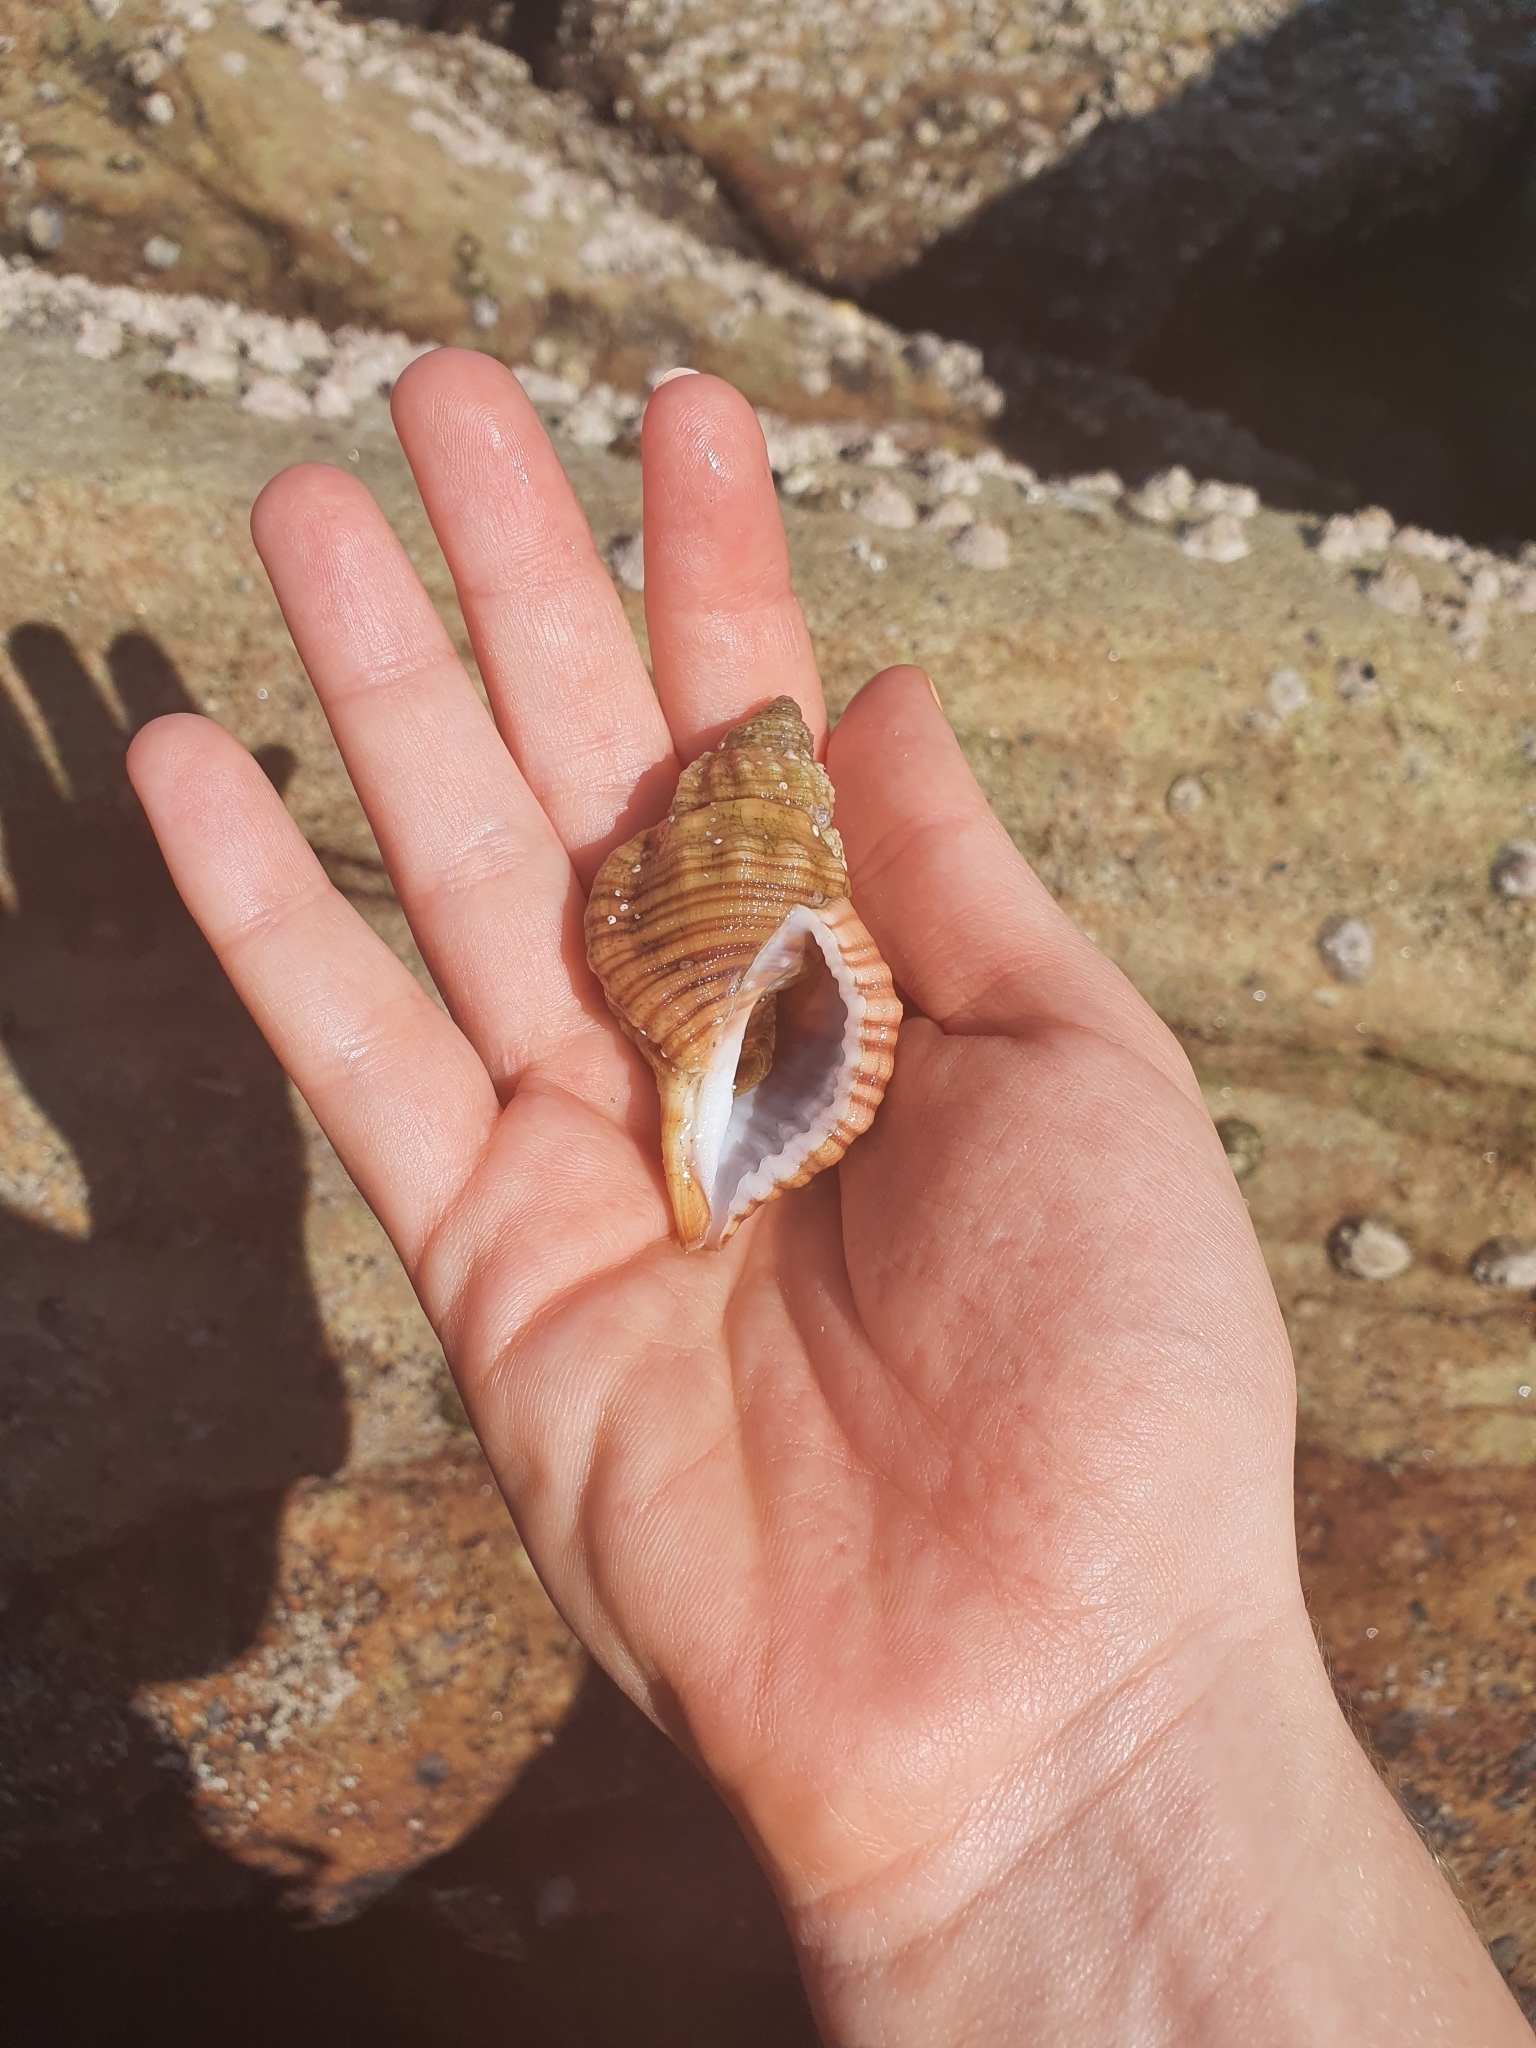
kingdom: Animalia
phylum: Mollusca
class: Gastropoda
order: Littorinimorpha
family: Cymatiidae
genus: Cabestana
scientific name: Cabestana spengleri
